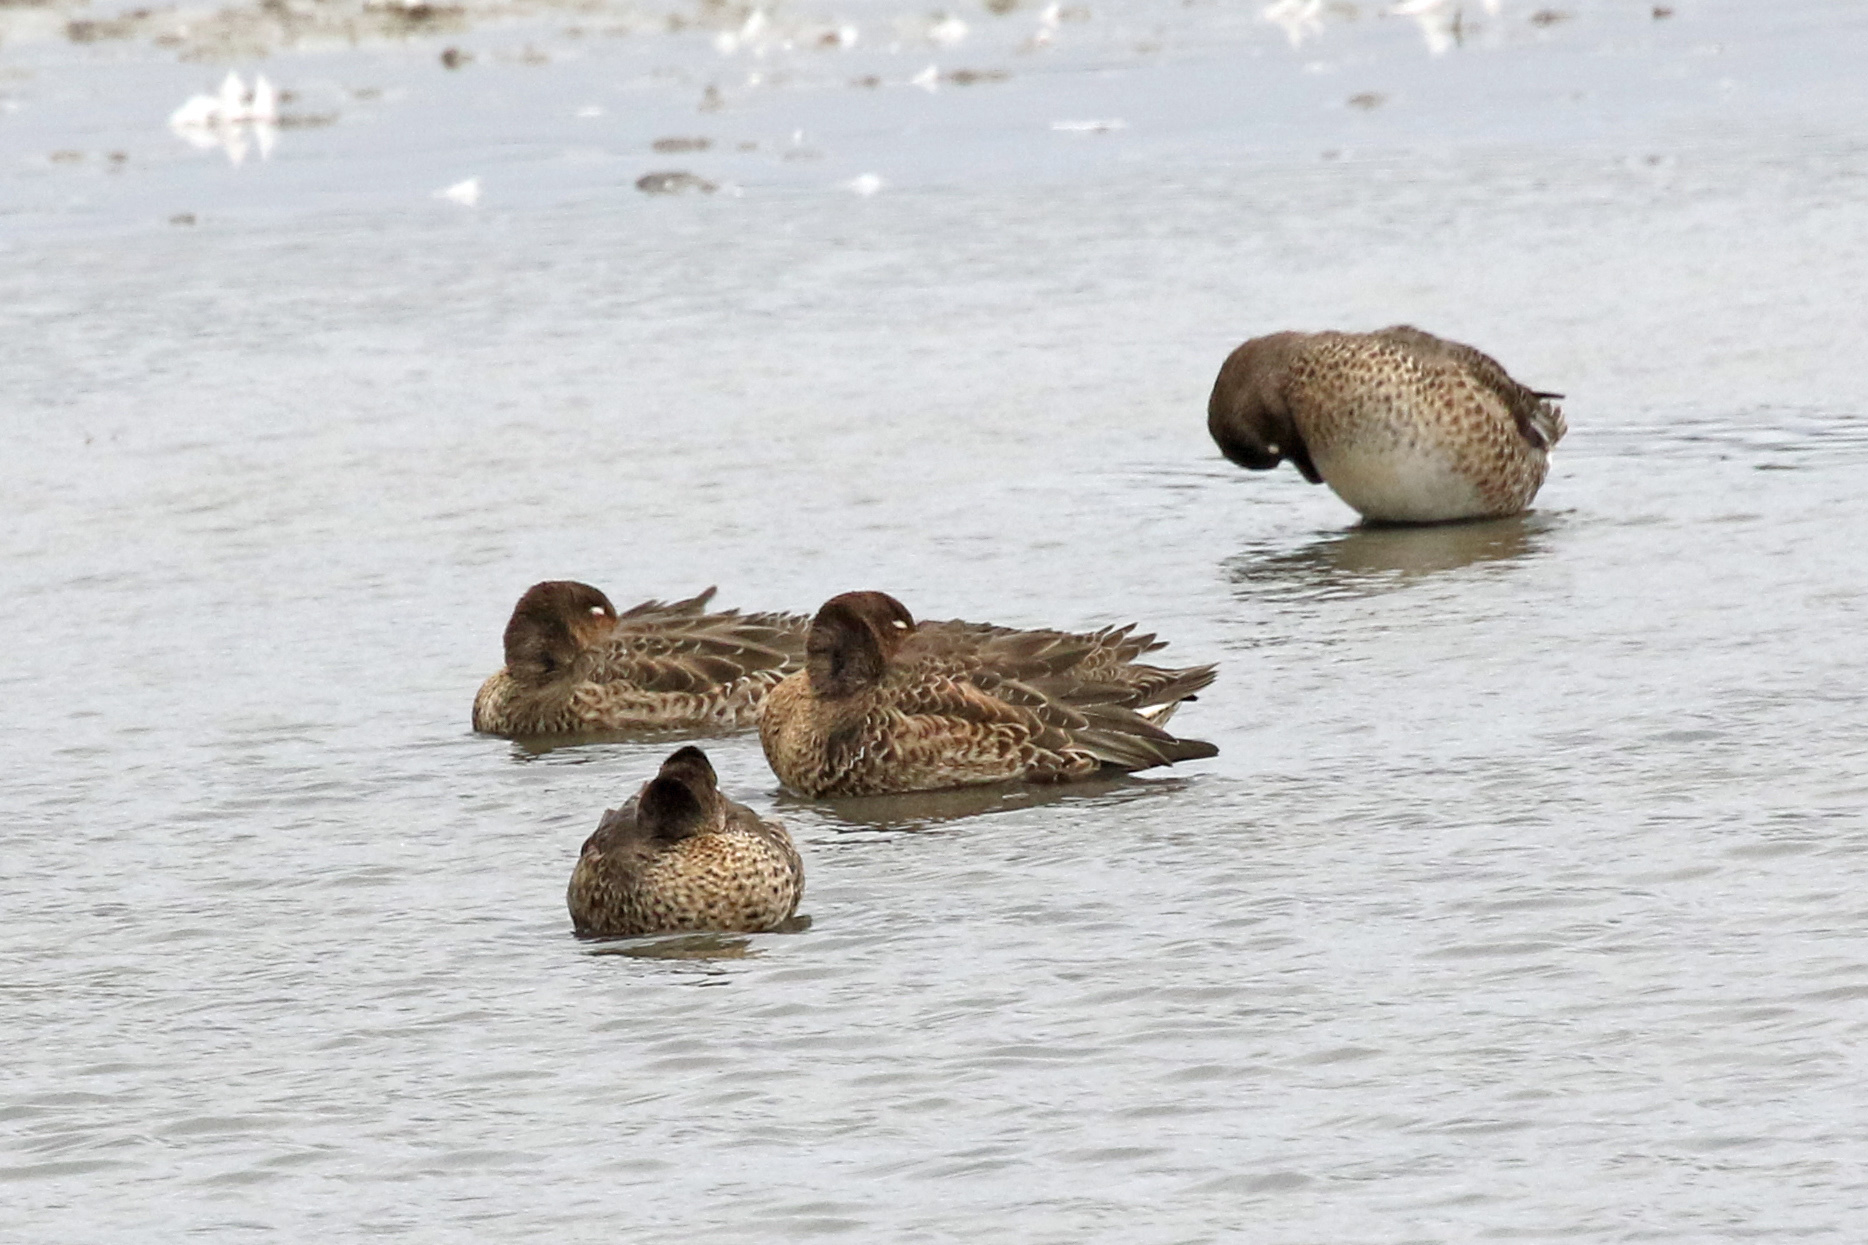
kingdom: Animalia
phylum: Chordata
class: Aves
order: Anseriformes
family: Anatidae
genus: Anas
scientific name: Anas crecca
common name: Eurasian teal
